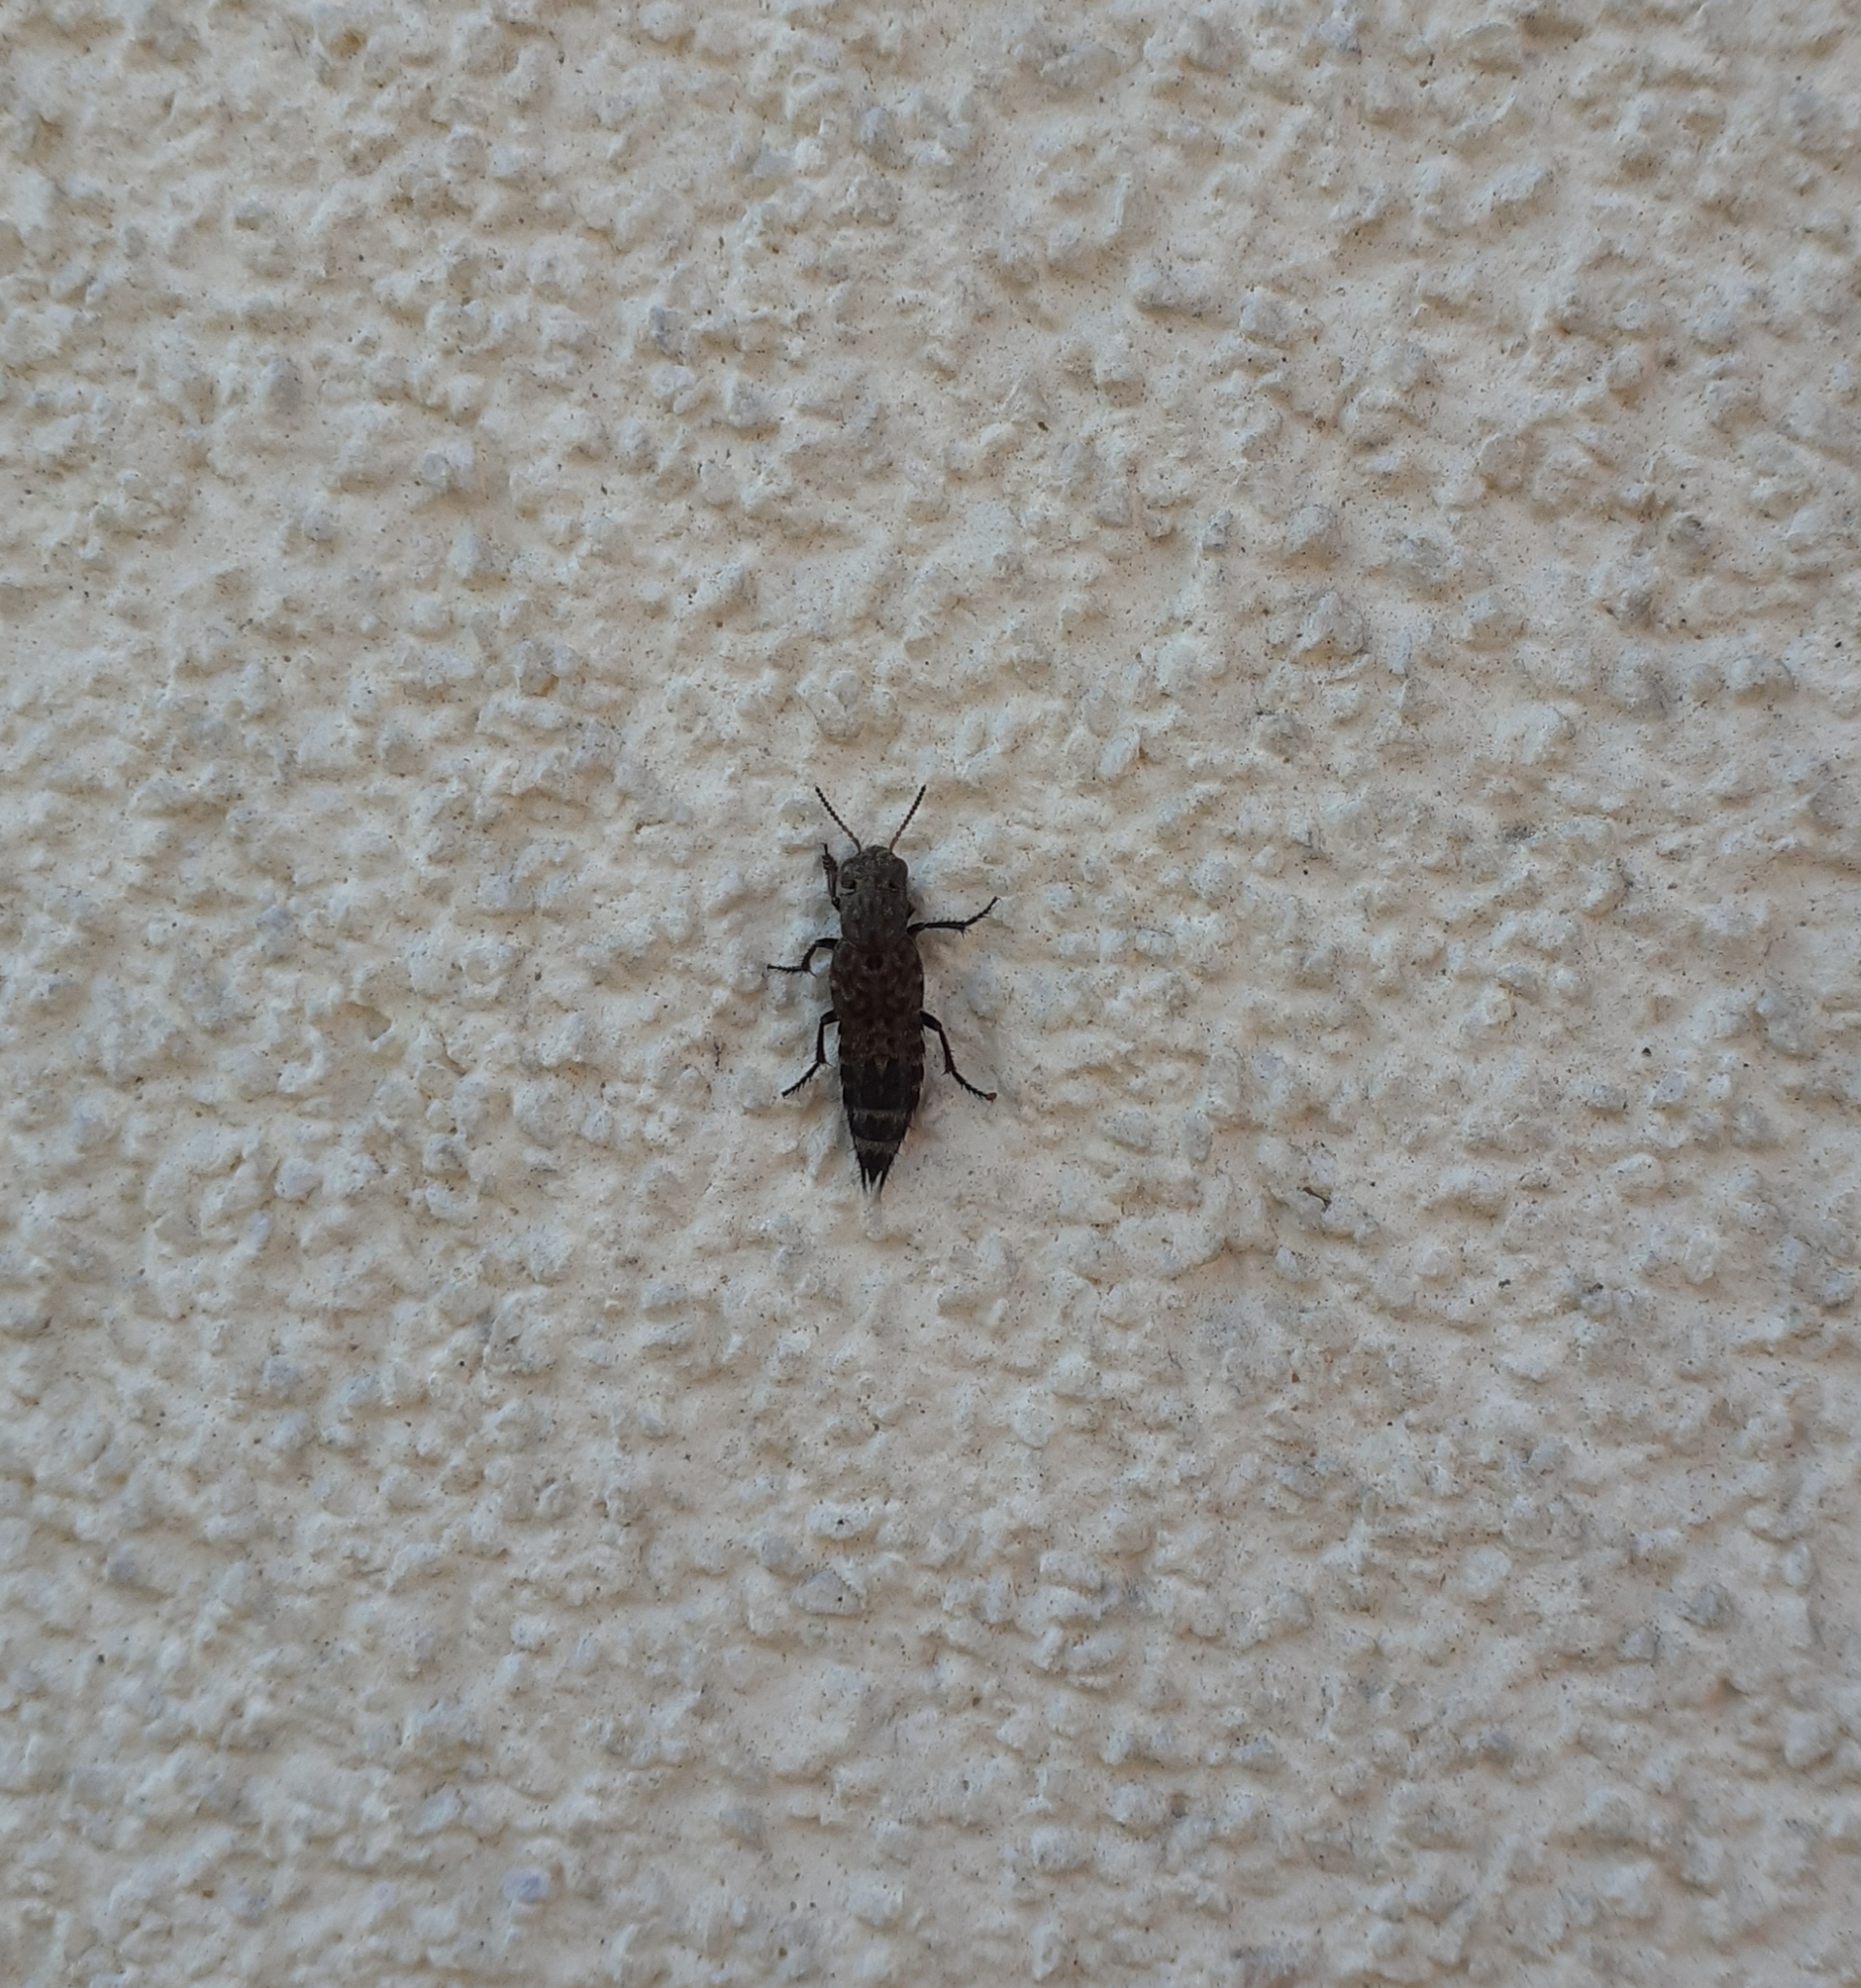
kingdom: Animalia
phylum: Arthropoda
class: Insecta
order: Coleoptera
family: Staphylinidae
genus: Ontholestes
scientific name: Ontholestes murinus
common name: Staph beetle
